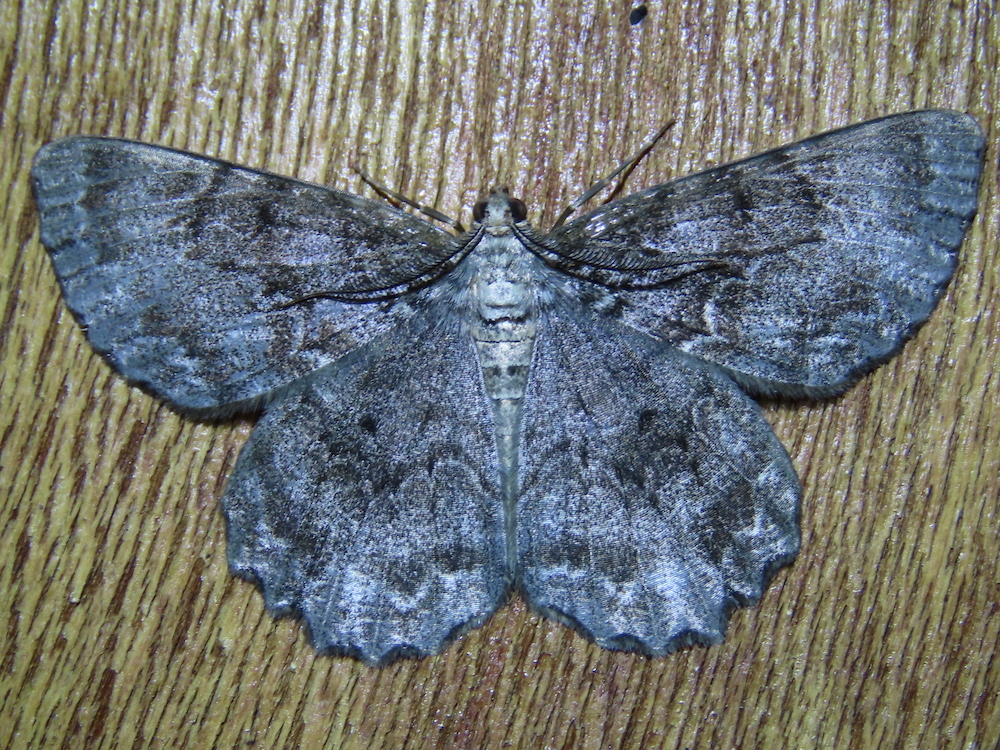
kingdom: Animalia
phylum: Arthropoda
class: Insecta
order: Lepidoptera
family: Geometridae
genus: Epimecis
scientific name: Epimecis hortaria
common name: Tulip-tree beauty
